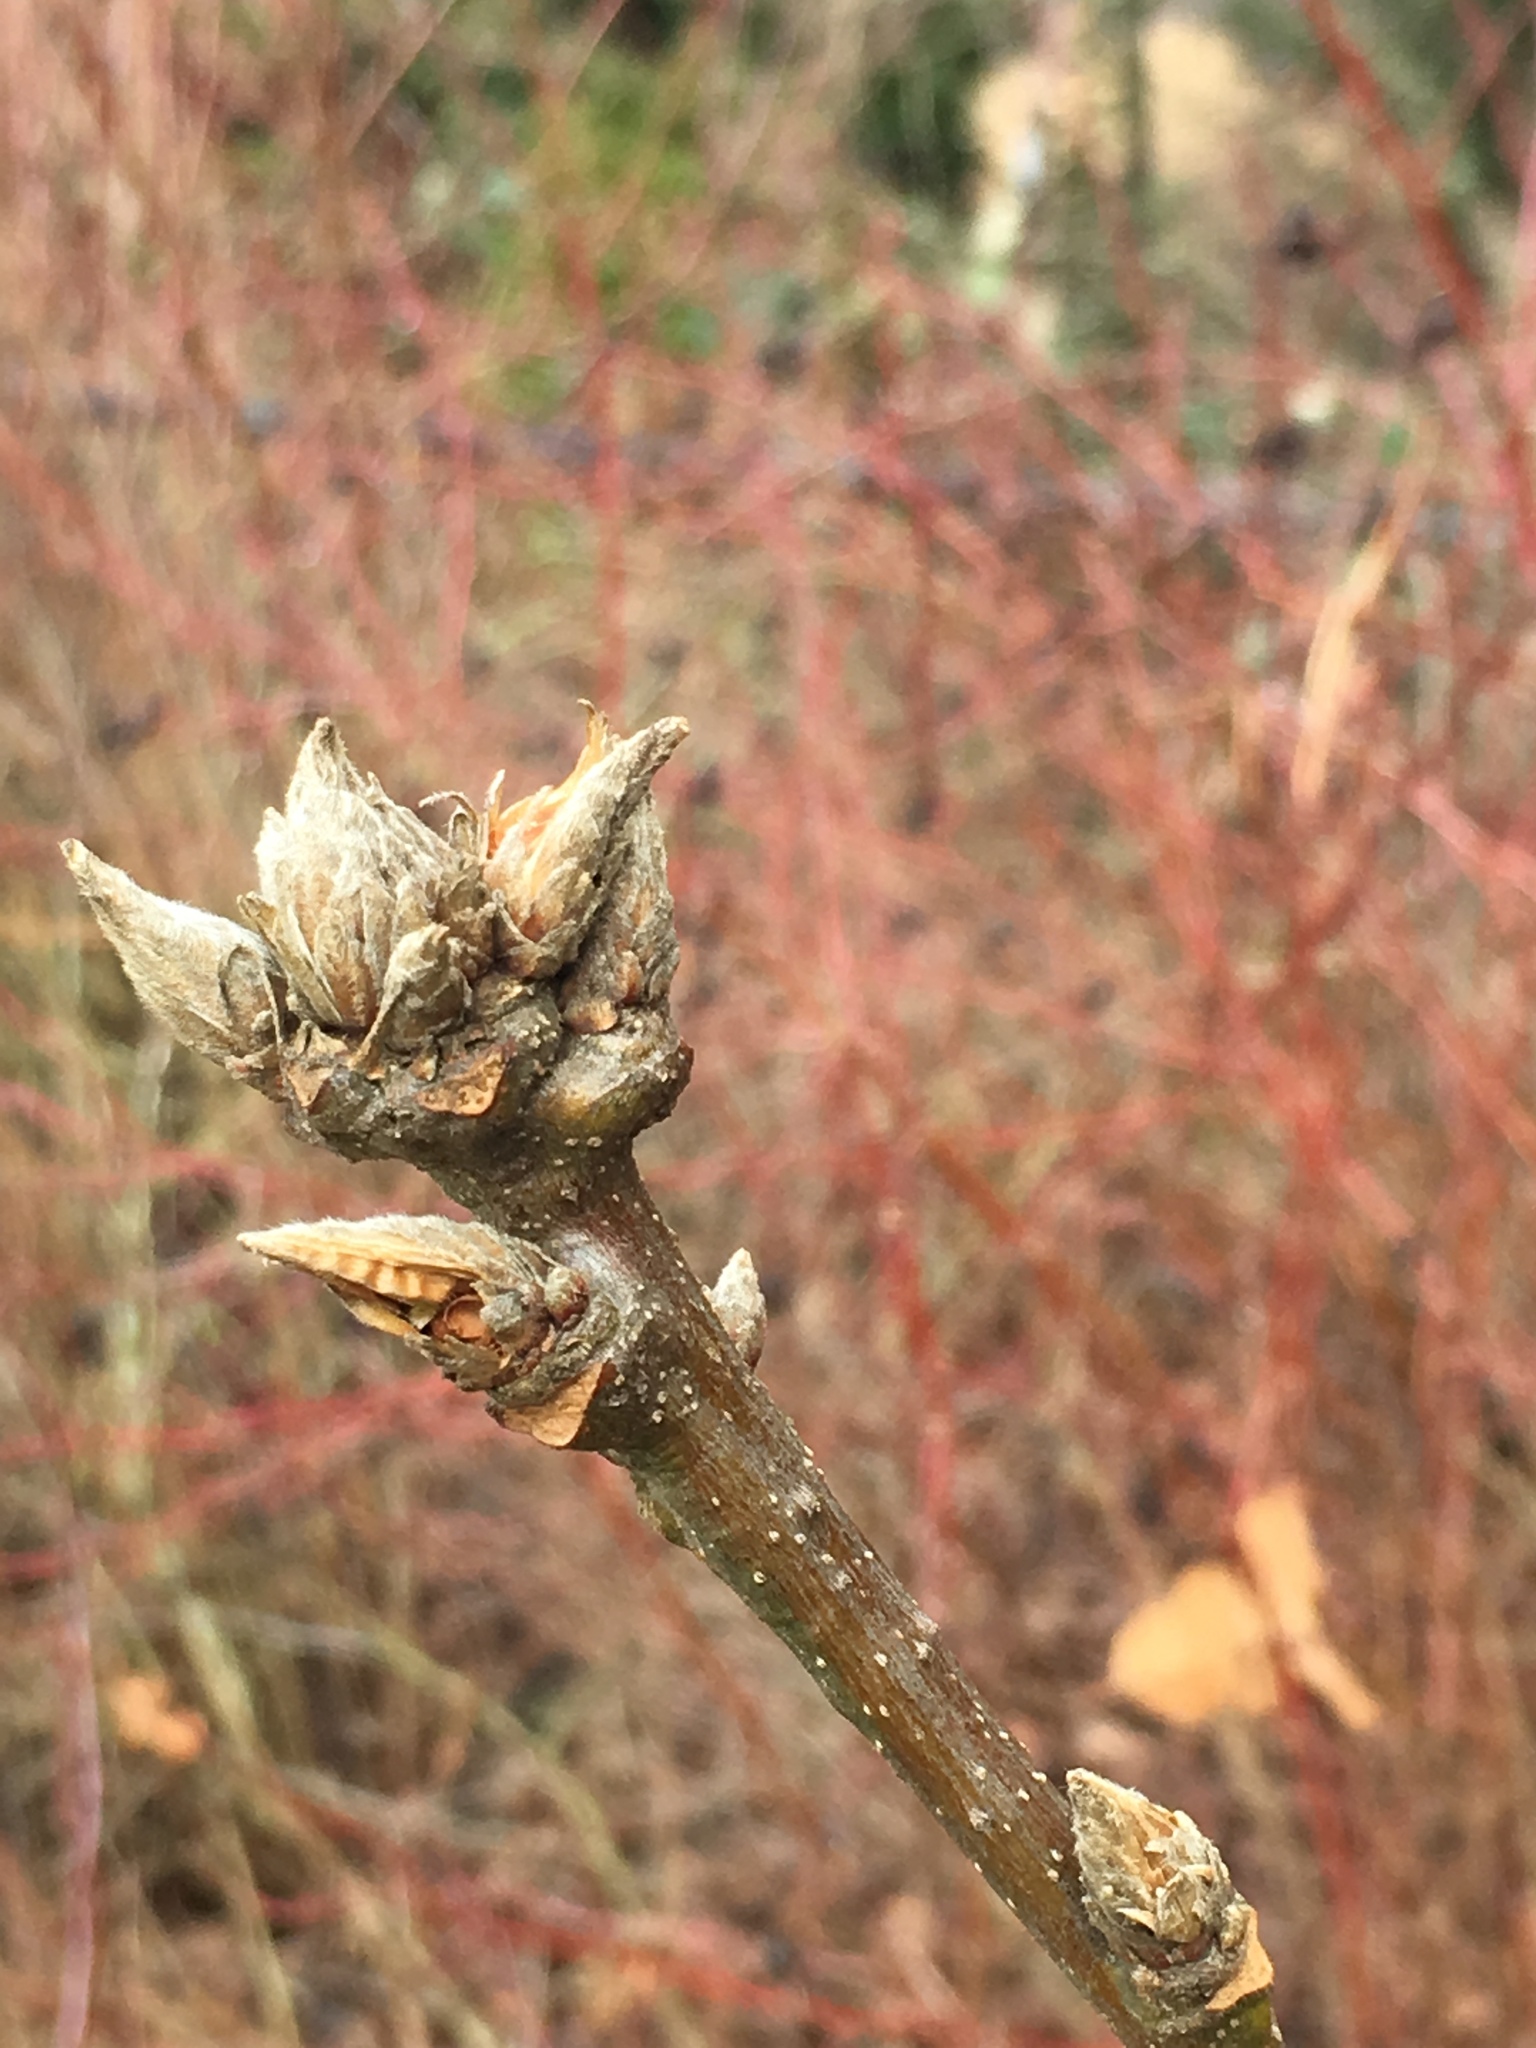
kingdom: Plantae
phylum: Tracheophyta
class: Magnoliopsida
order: Fagales
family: Fagaceae
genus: Quercus
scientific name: Quercus garryana
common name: Garry oak
